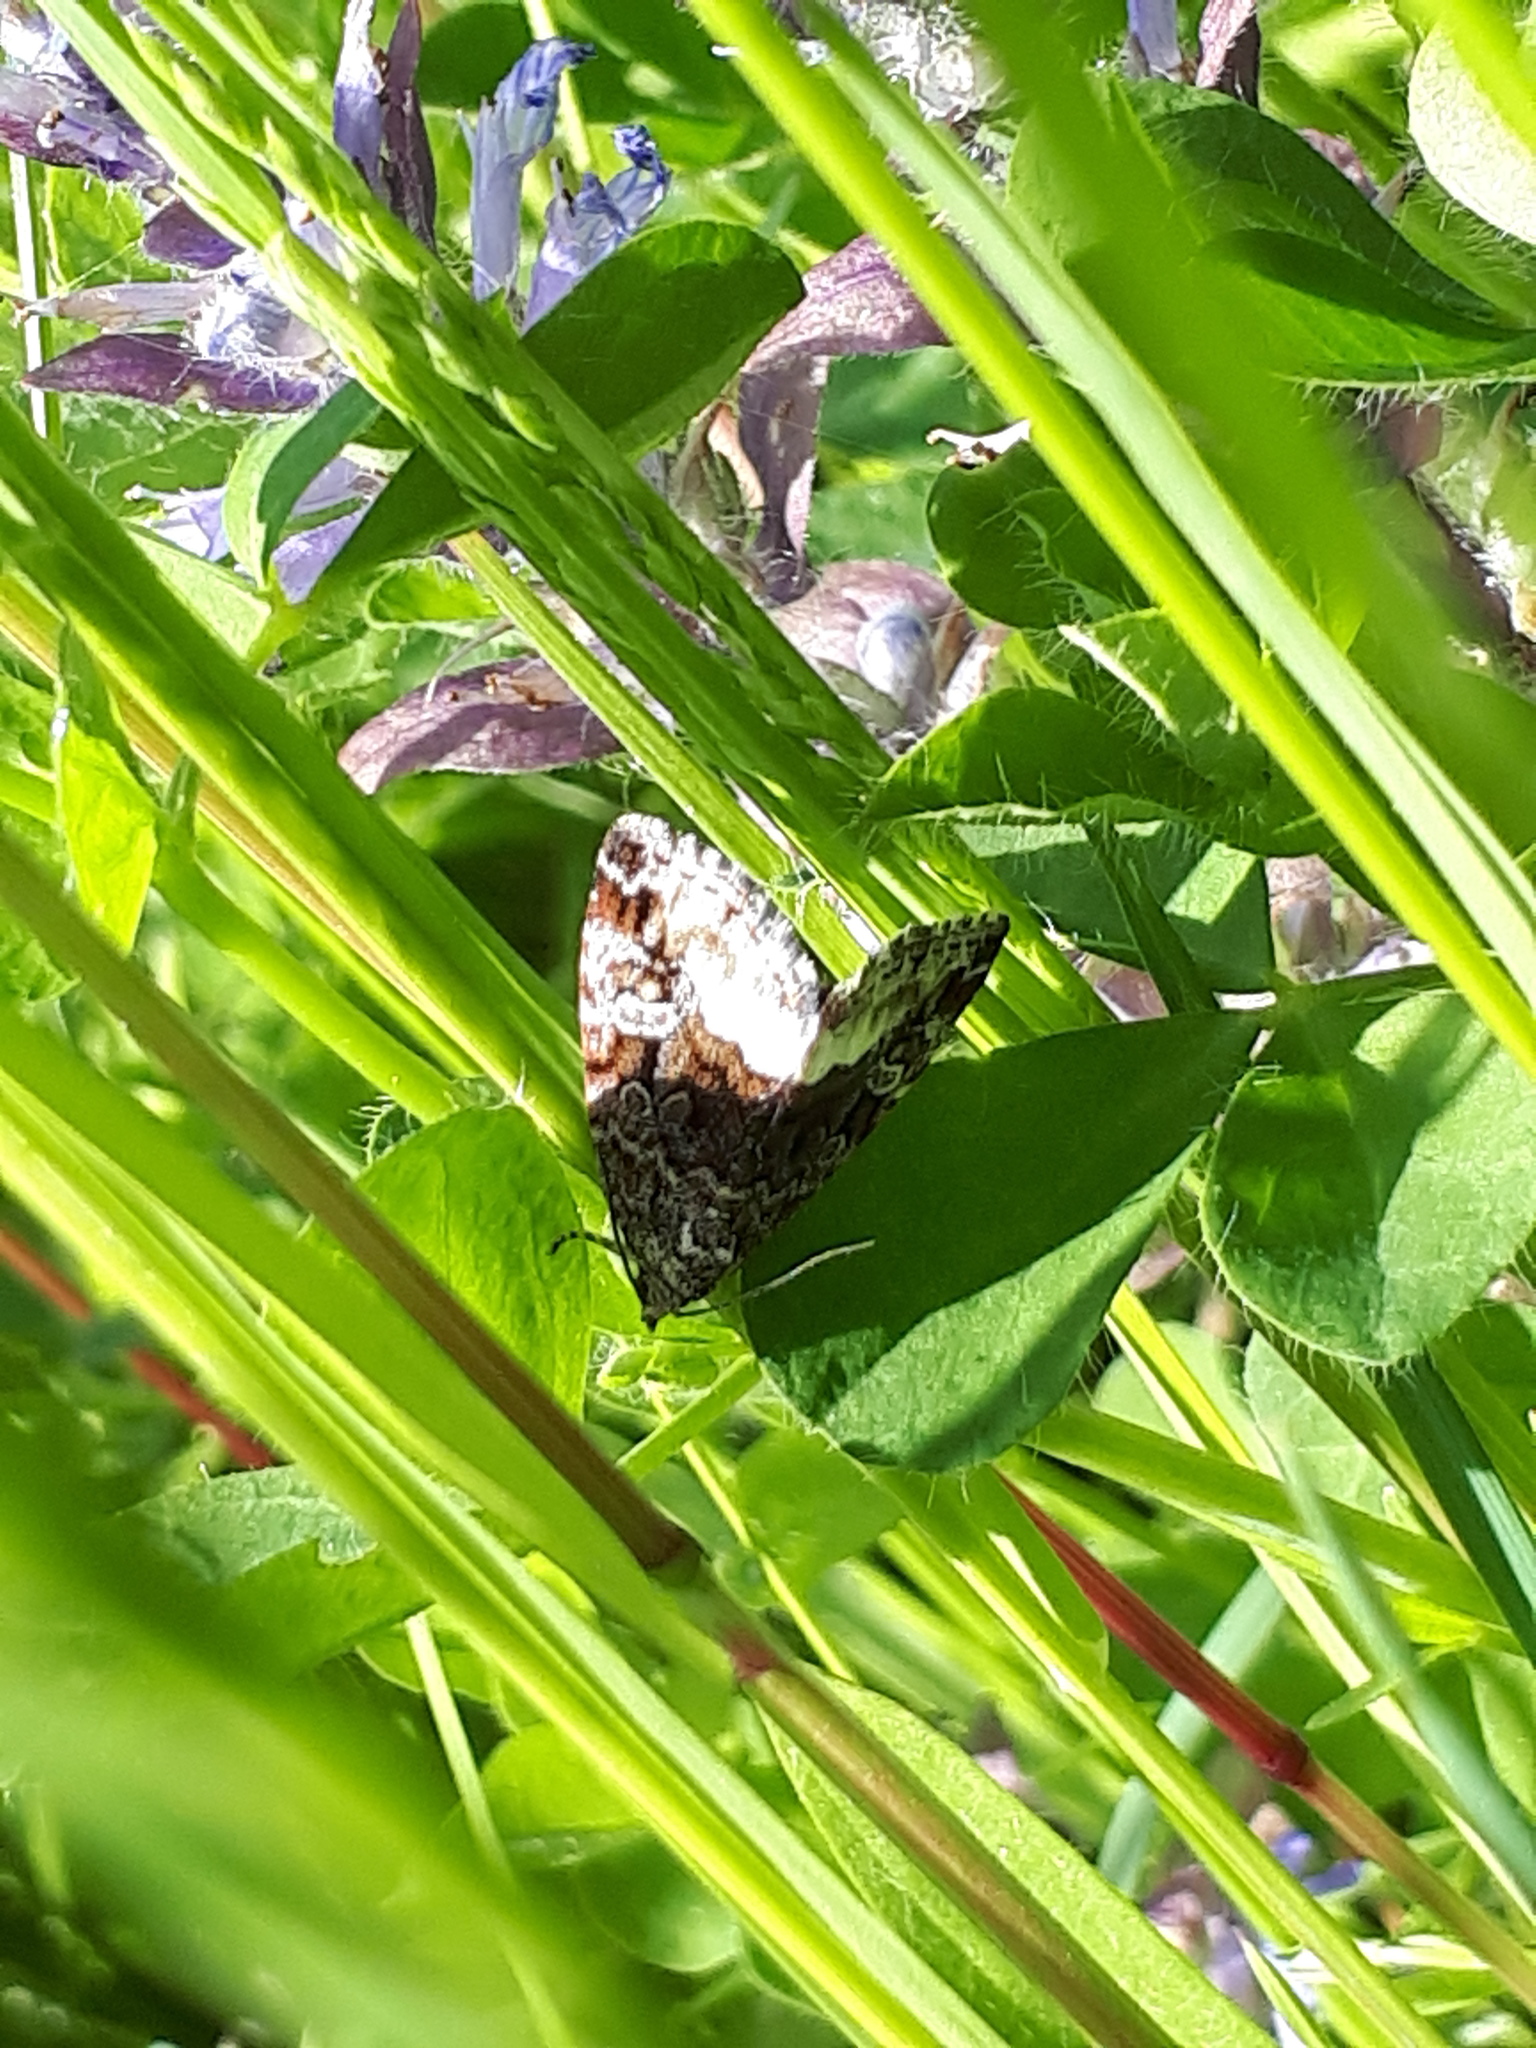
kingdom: Animalia
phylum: Arthropoda
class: Insecta
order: Lepidoptera
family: Noctuidae
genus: Deltote
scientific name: Deltote pygarga
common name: Marbled white spot
